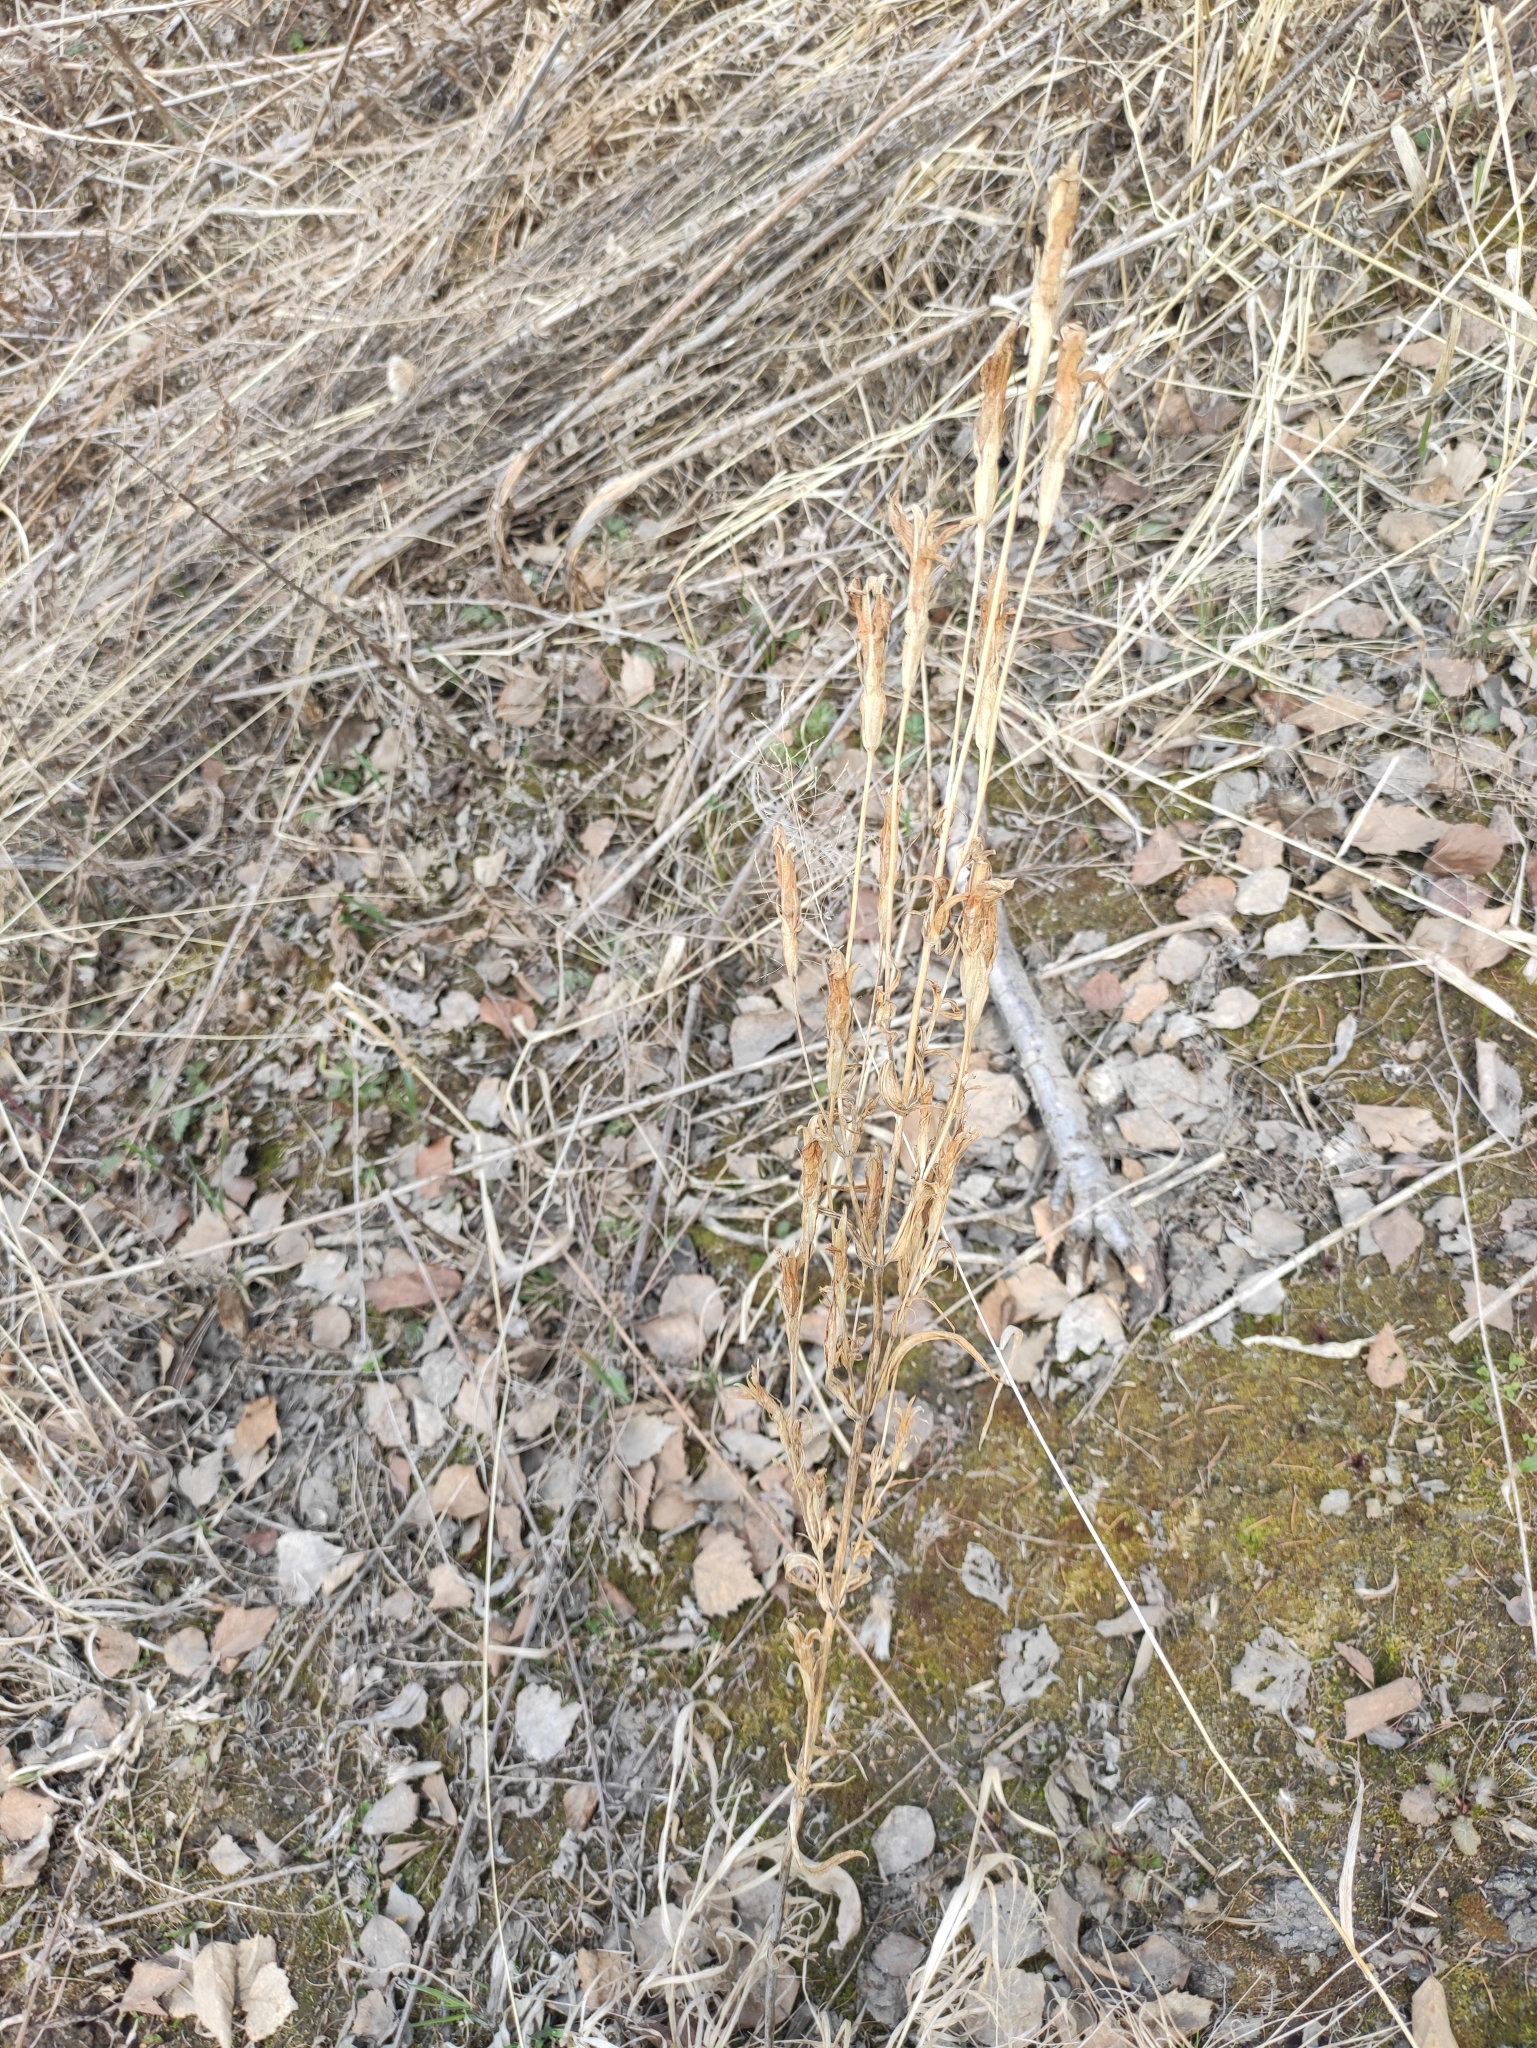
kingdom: Plantae
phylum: Tracheophyta
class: Magnoliopsida
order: Gentianales
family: Gentianaceae
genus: Gentianopsis
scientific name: Gentianopsis barbata
